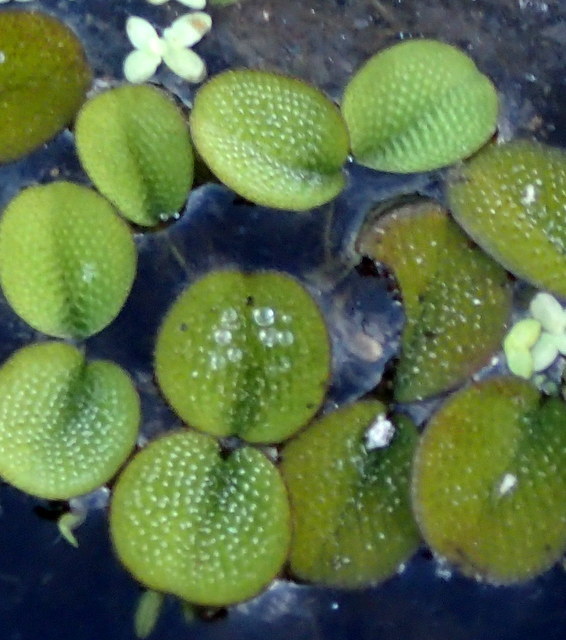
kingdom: Plantae
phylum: Tracheophyta
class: Polypodiopsida
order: Salviniales
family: Salviniaceae
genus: Salvinia
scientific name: Salvinia minima
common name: Water spangles
